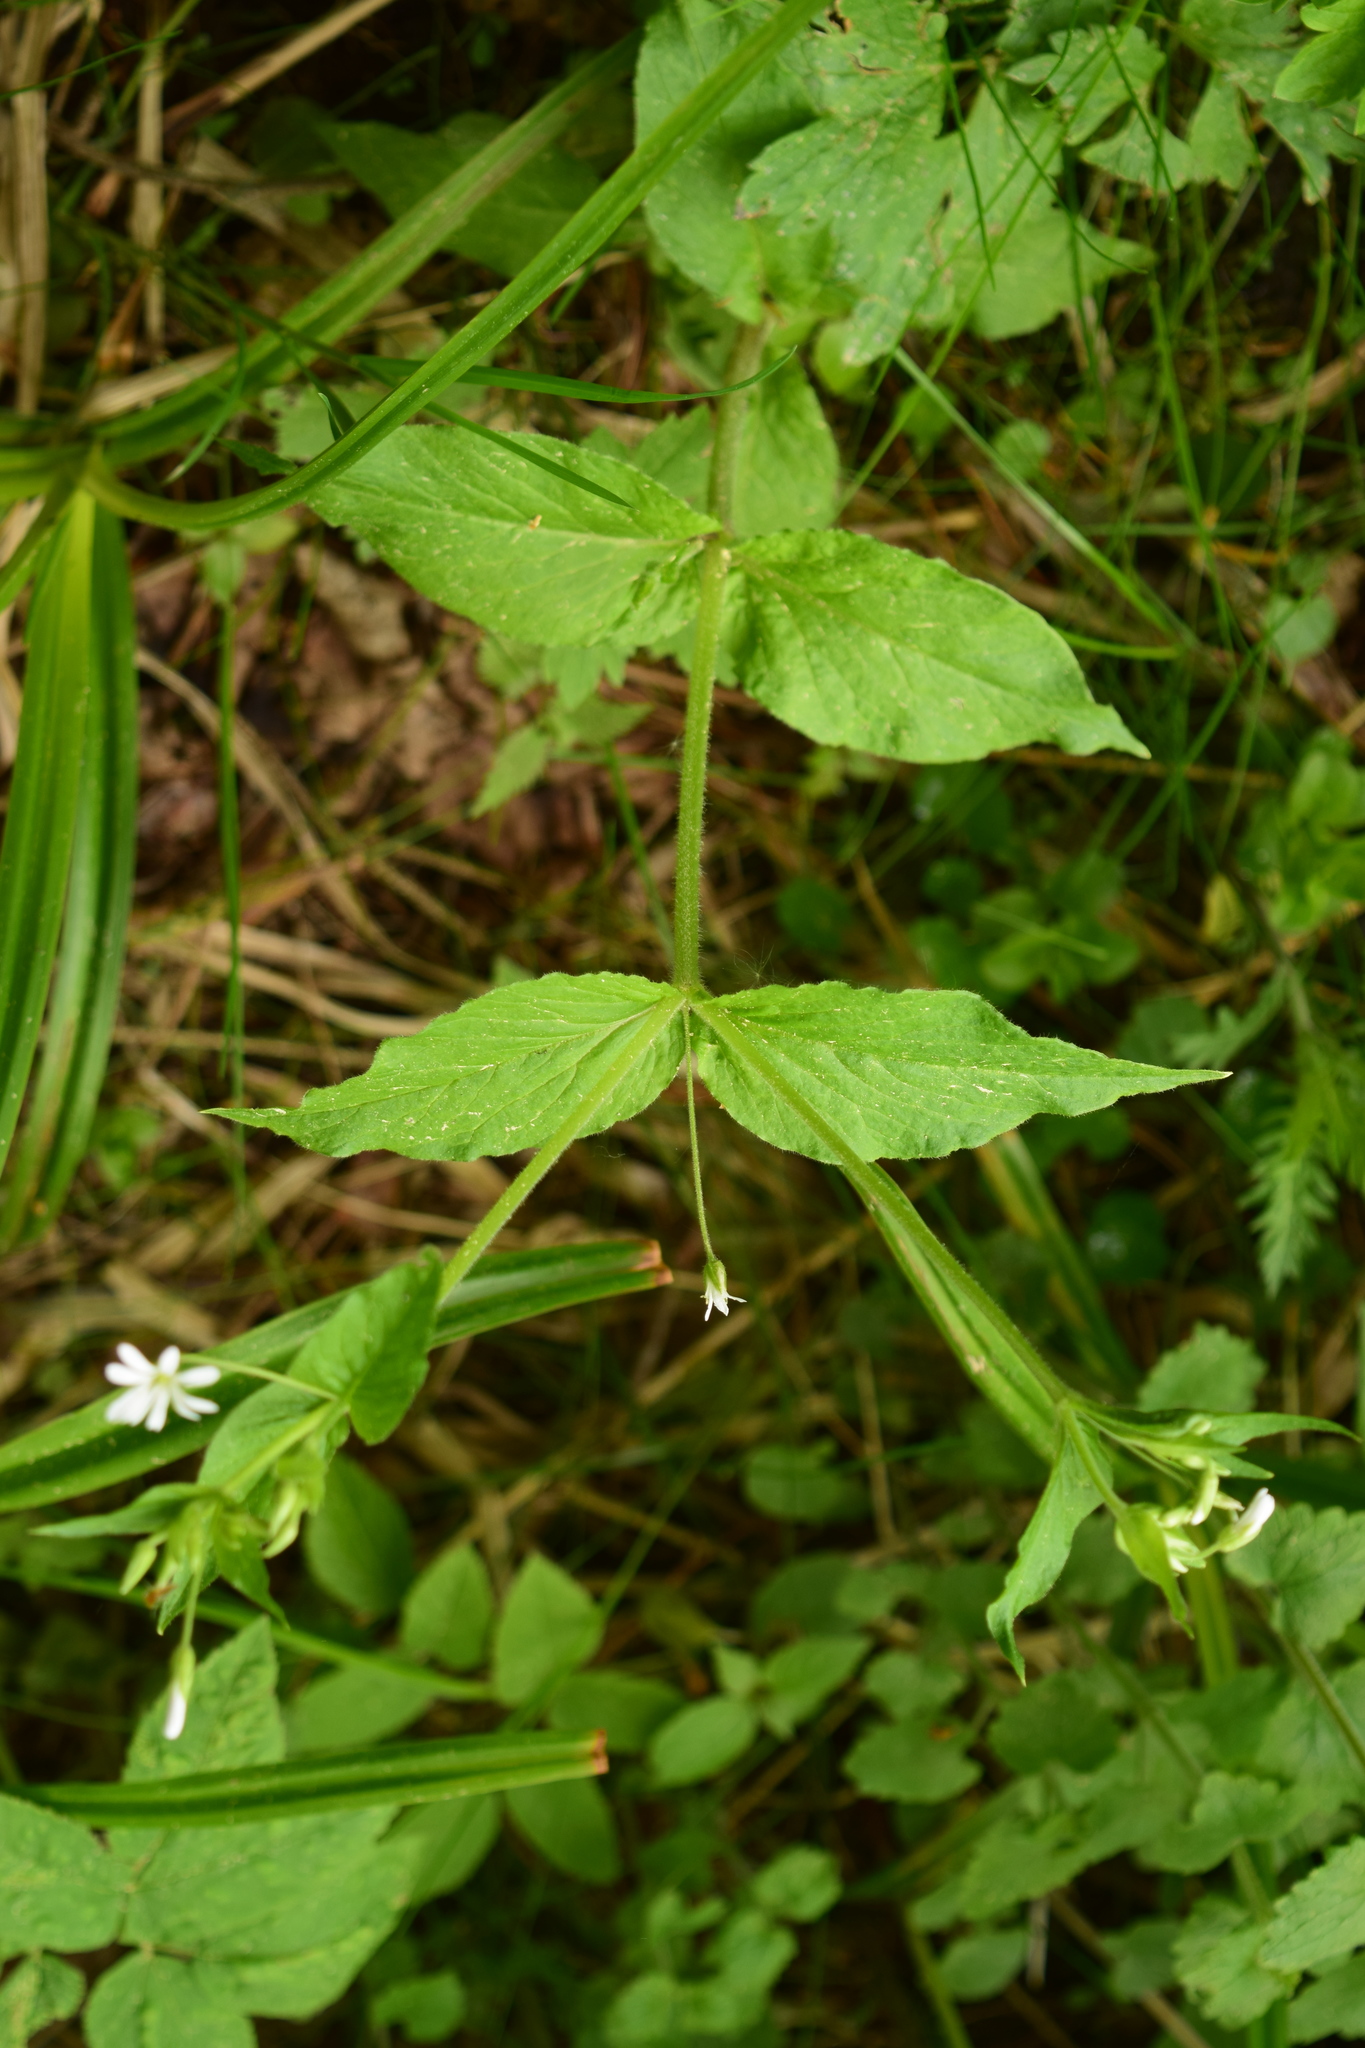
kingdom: Plantae
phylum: Tracheophyta
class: Magnoliopsida
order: Caryophyllales
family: Caryophyllaceae
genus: Stellaria
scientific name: Stellaria nemorum
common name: Wood stitchwort
